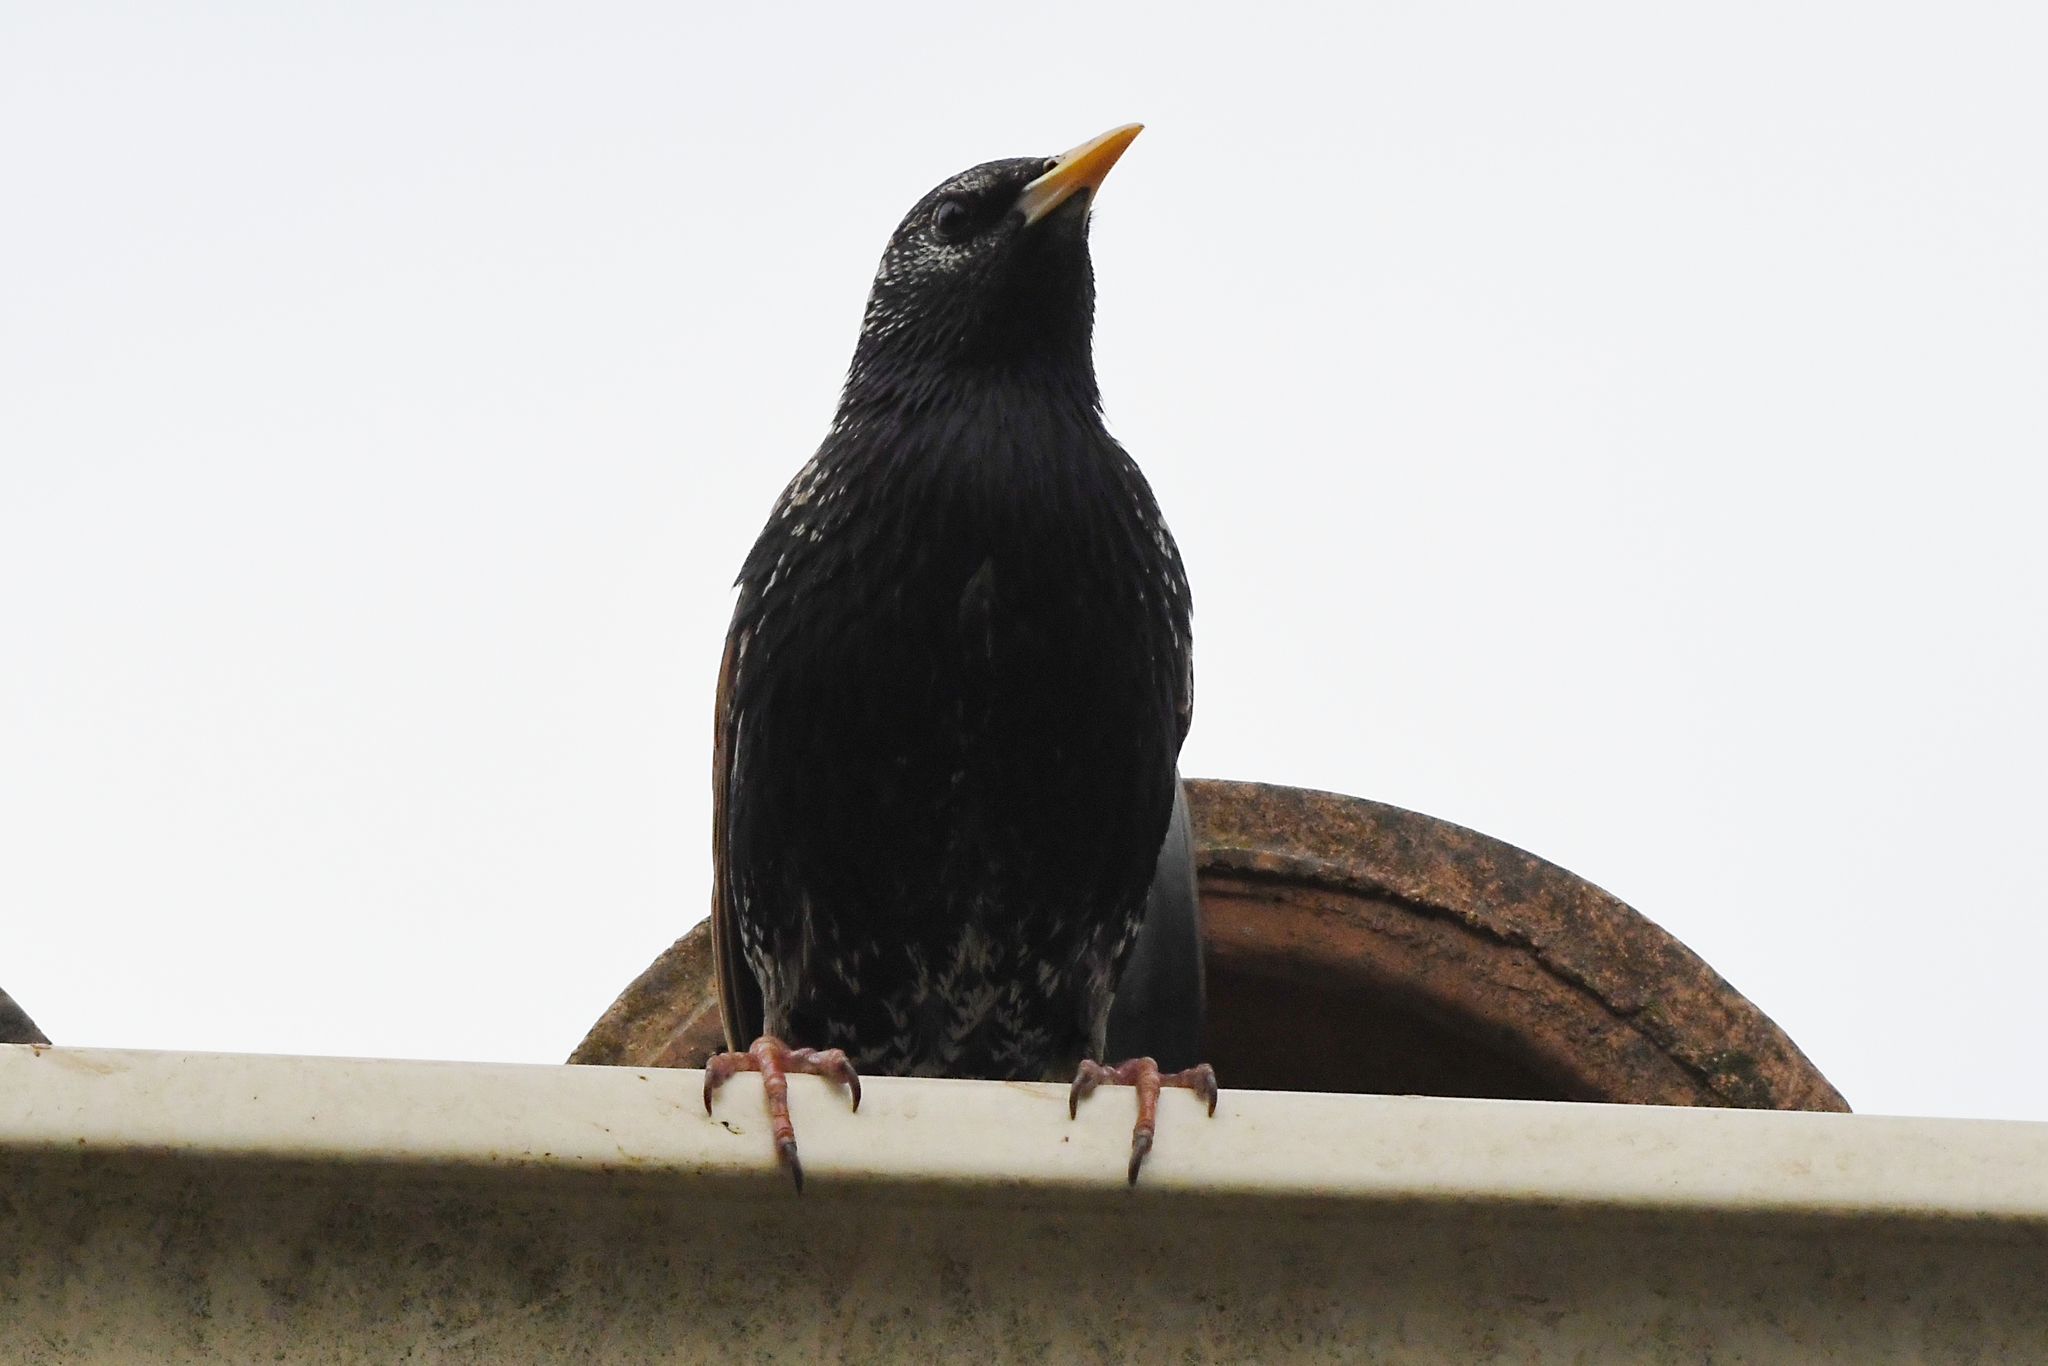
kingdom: Animalia
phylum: Chordata
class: Aves
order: Passeriformes
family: Sturnidae
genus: Sturnus
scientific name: Sturnus vulgaris
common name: Common starling
